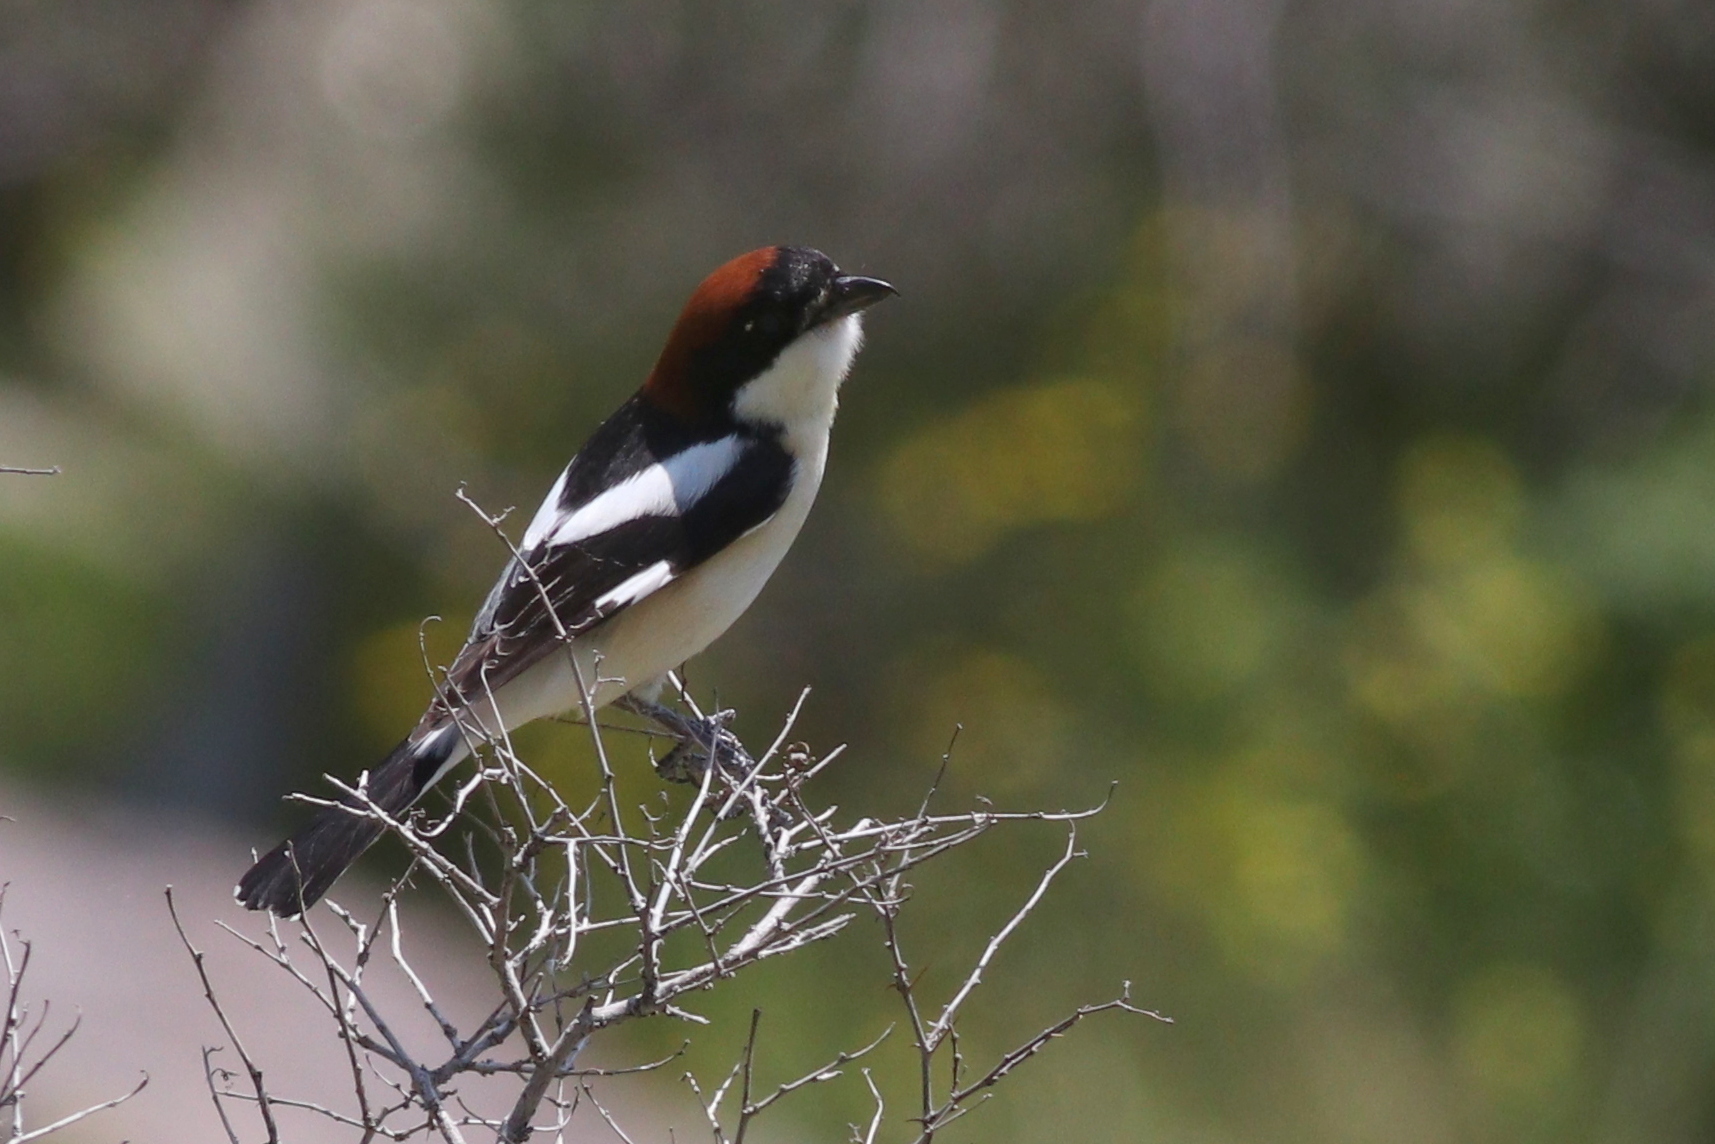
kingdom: Animalia
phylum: Chordata
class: Aves
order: Passeriformes
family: Laniidae
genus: Lanius
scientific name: Lanius senator
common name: Woodchat shrike
